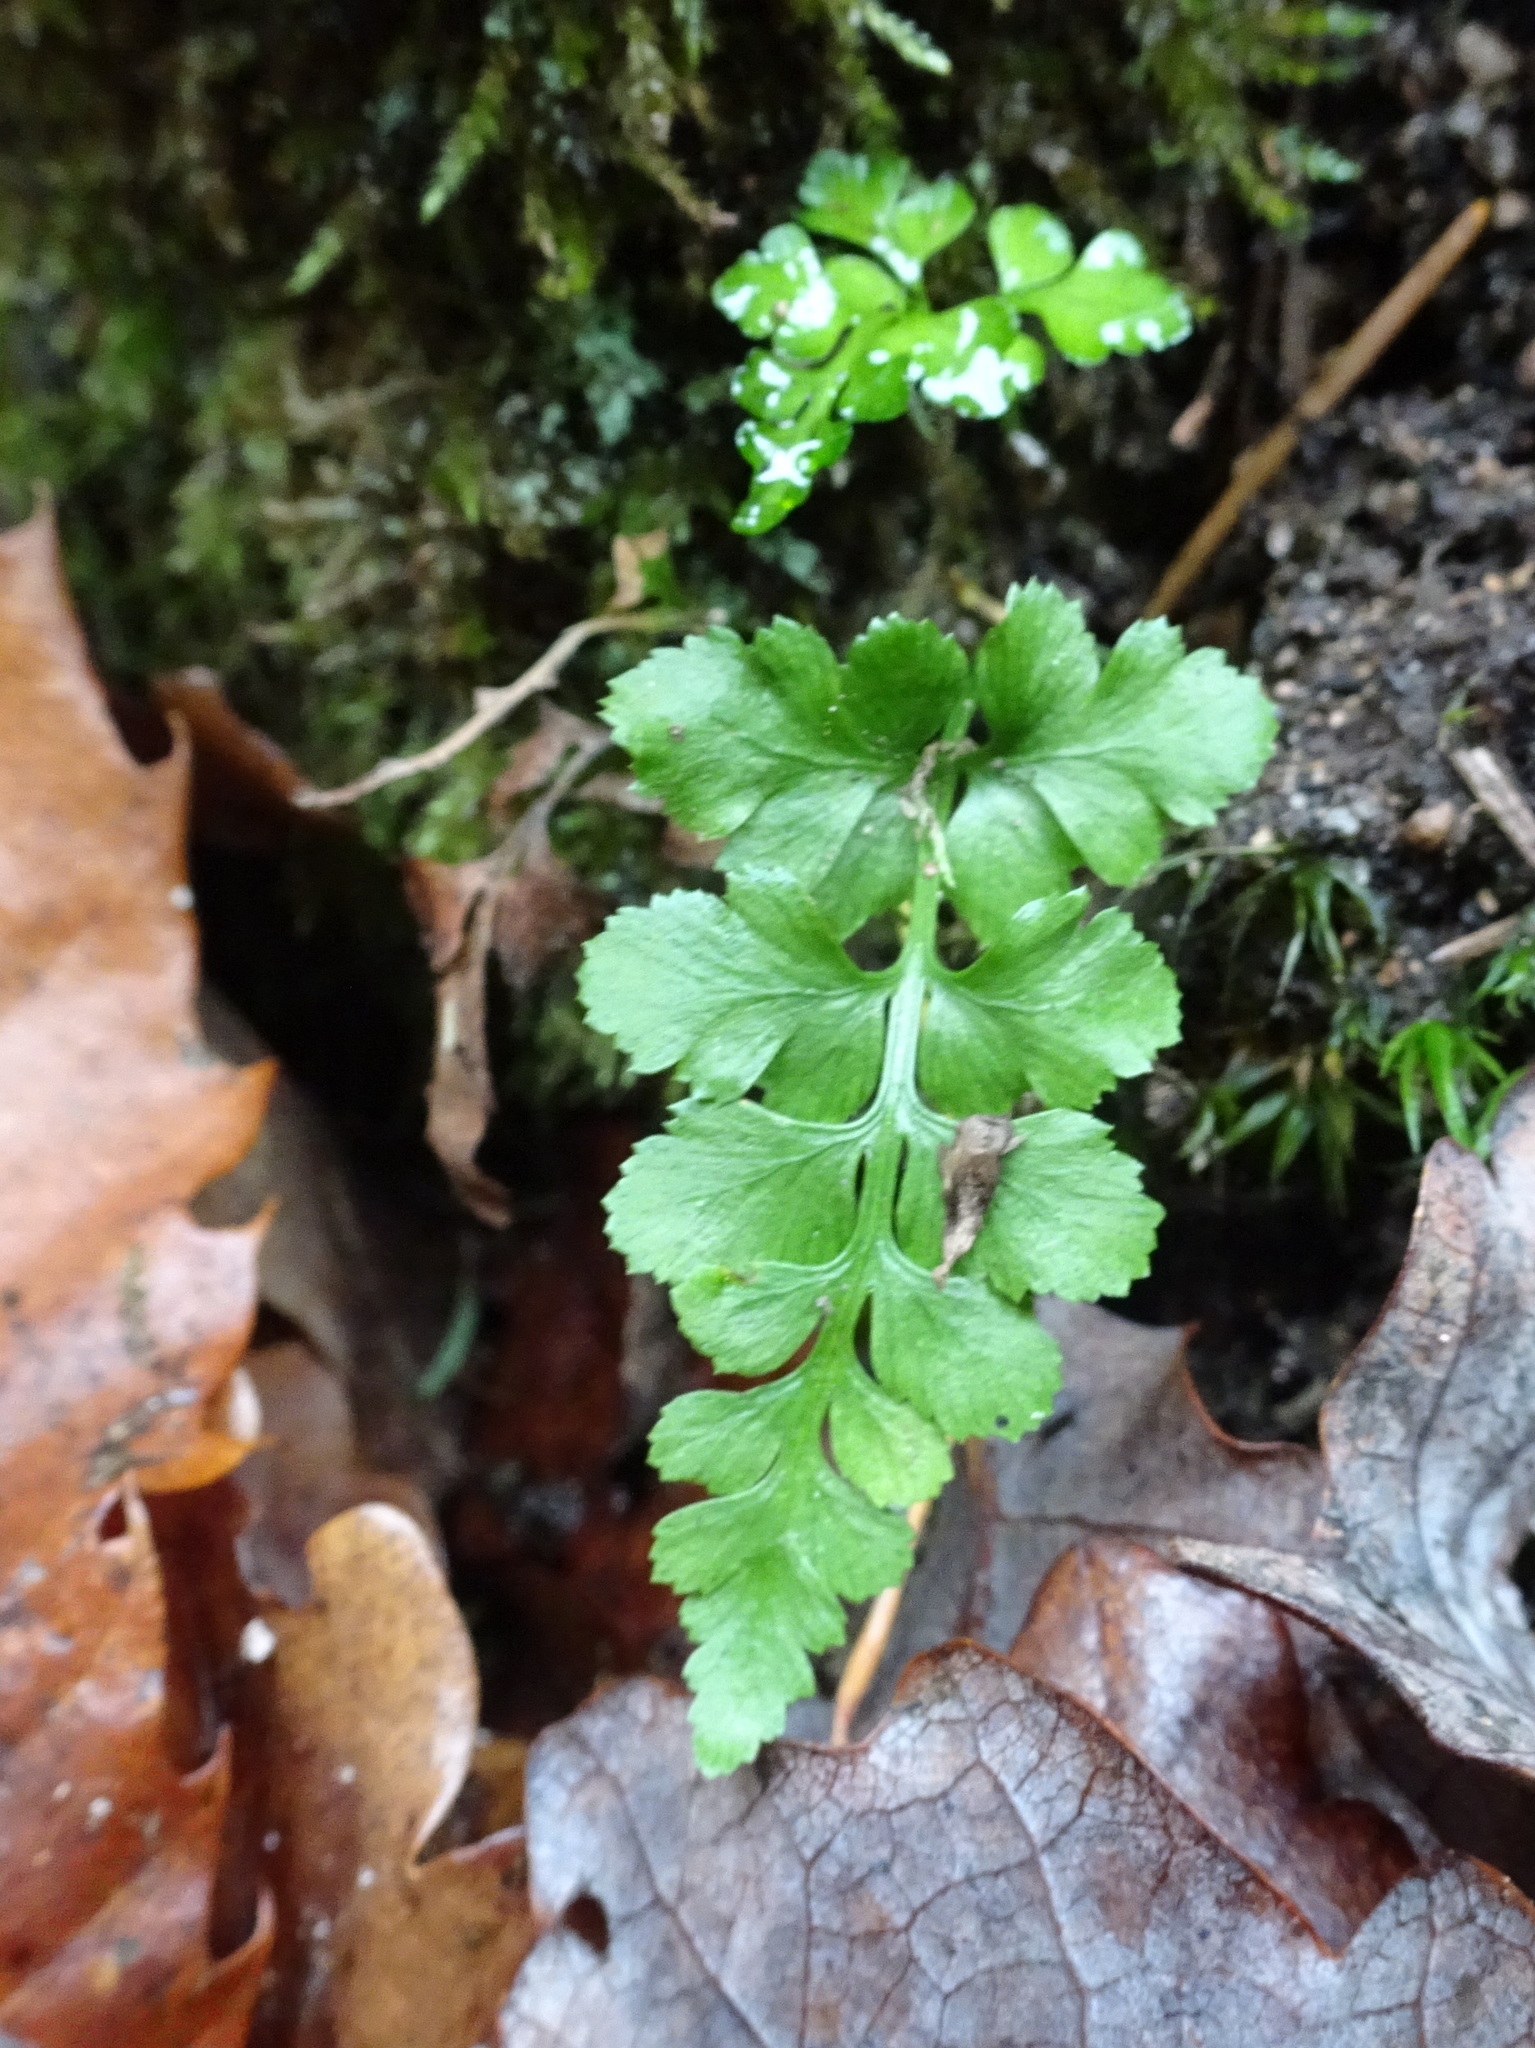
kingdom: Plantae
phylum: Tracheophyta
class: Polypodiopsida
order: Polypodiales
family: Aspleniaceae
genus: Asplenium
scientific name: Asplenium adiantum-nigrum
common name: Black spleenwort
